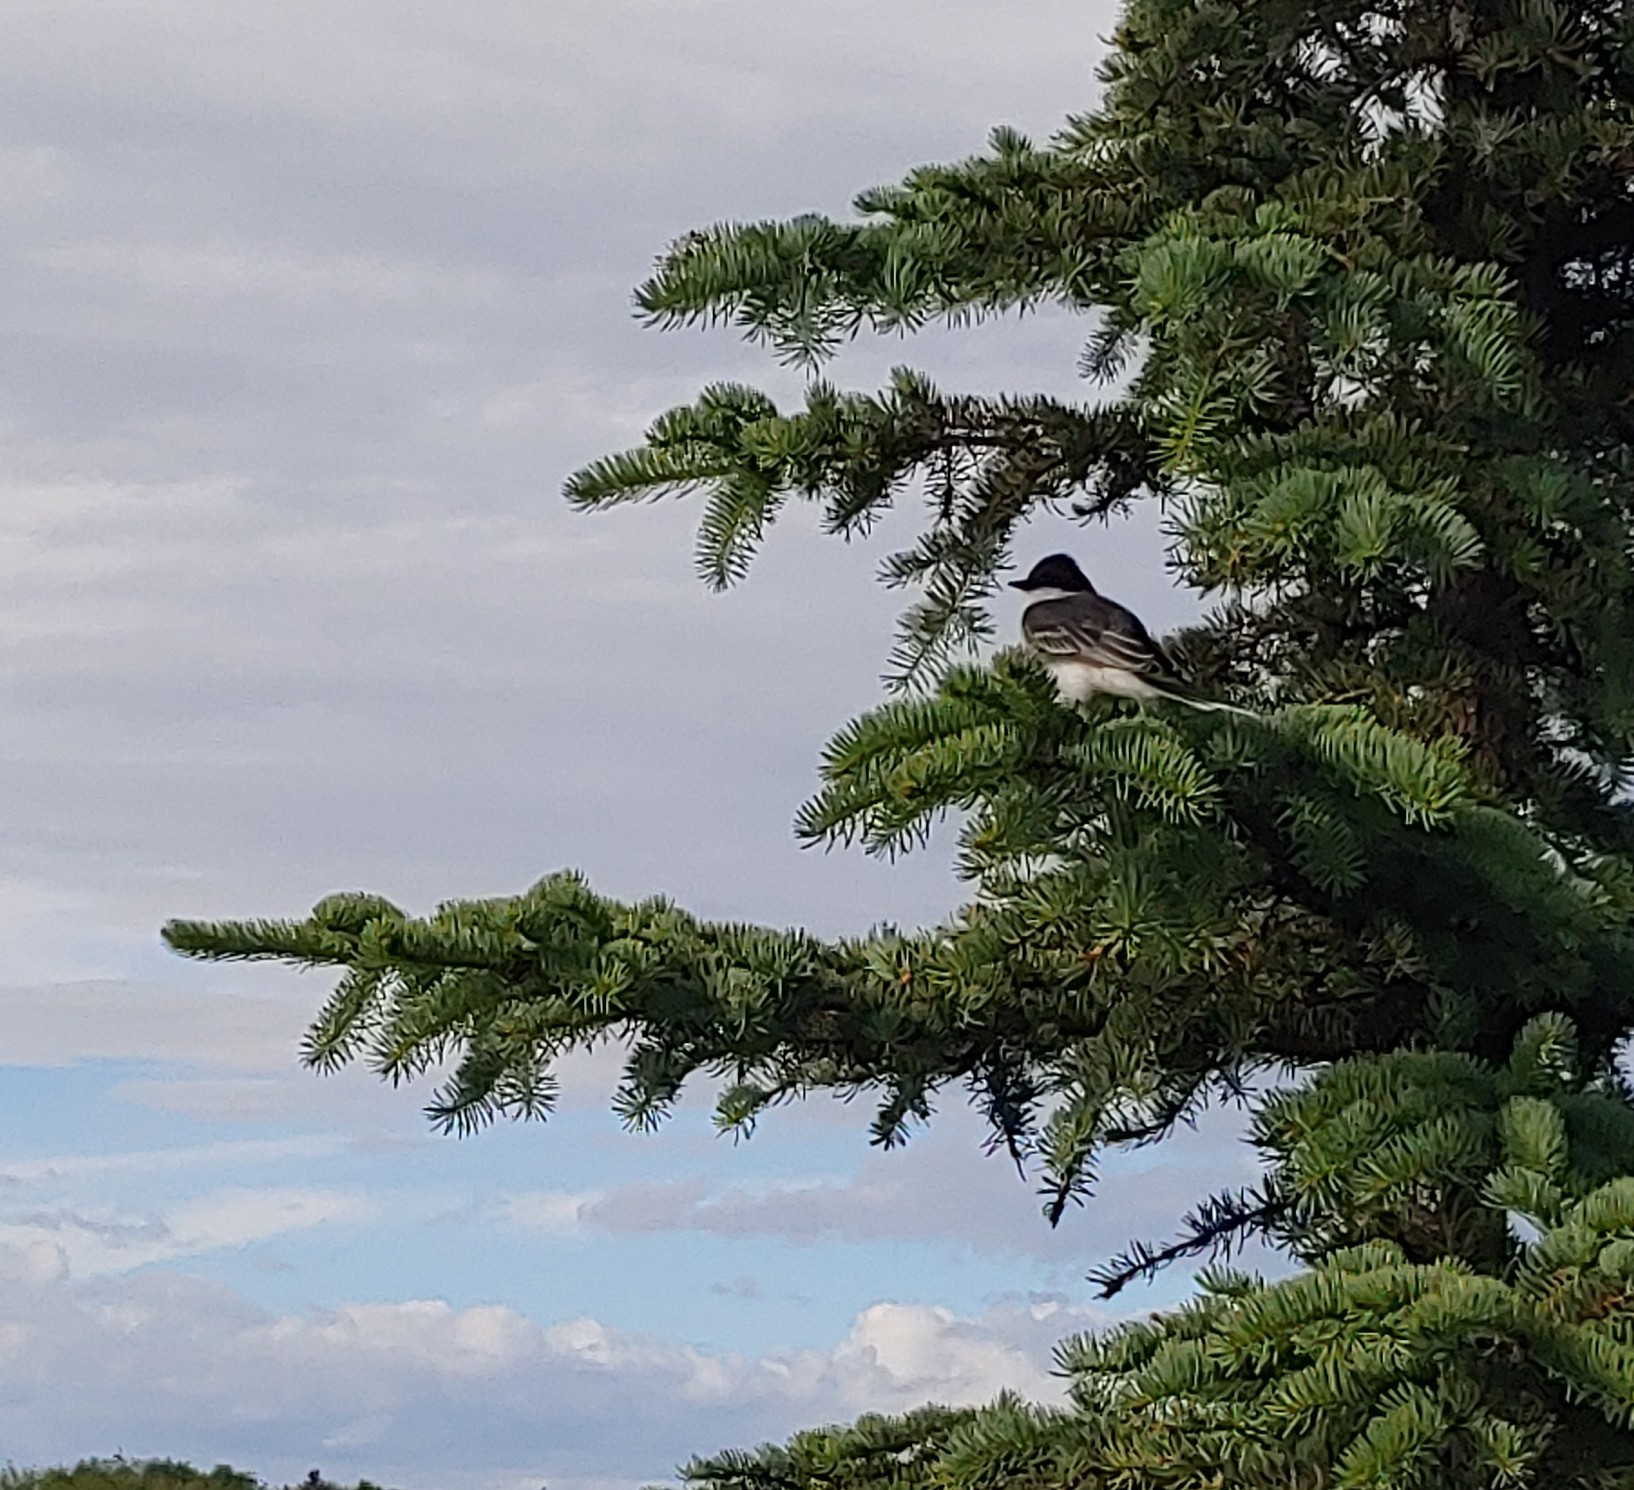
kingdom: Animalia
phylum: Chordata
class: Aves
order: Passeriformes
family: Tyrannidae
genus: Tyrannus
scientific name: Tyrannus tyrannus
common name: Eastern kingbird
